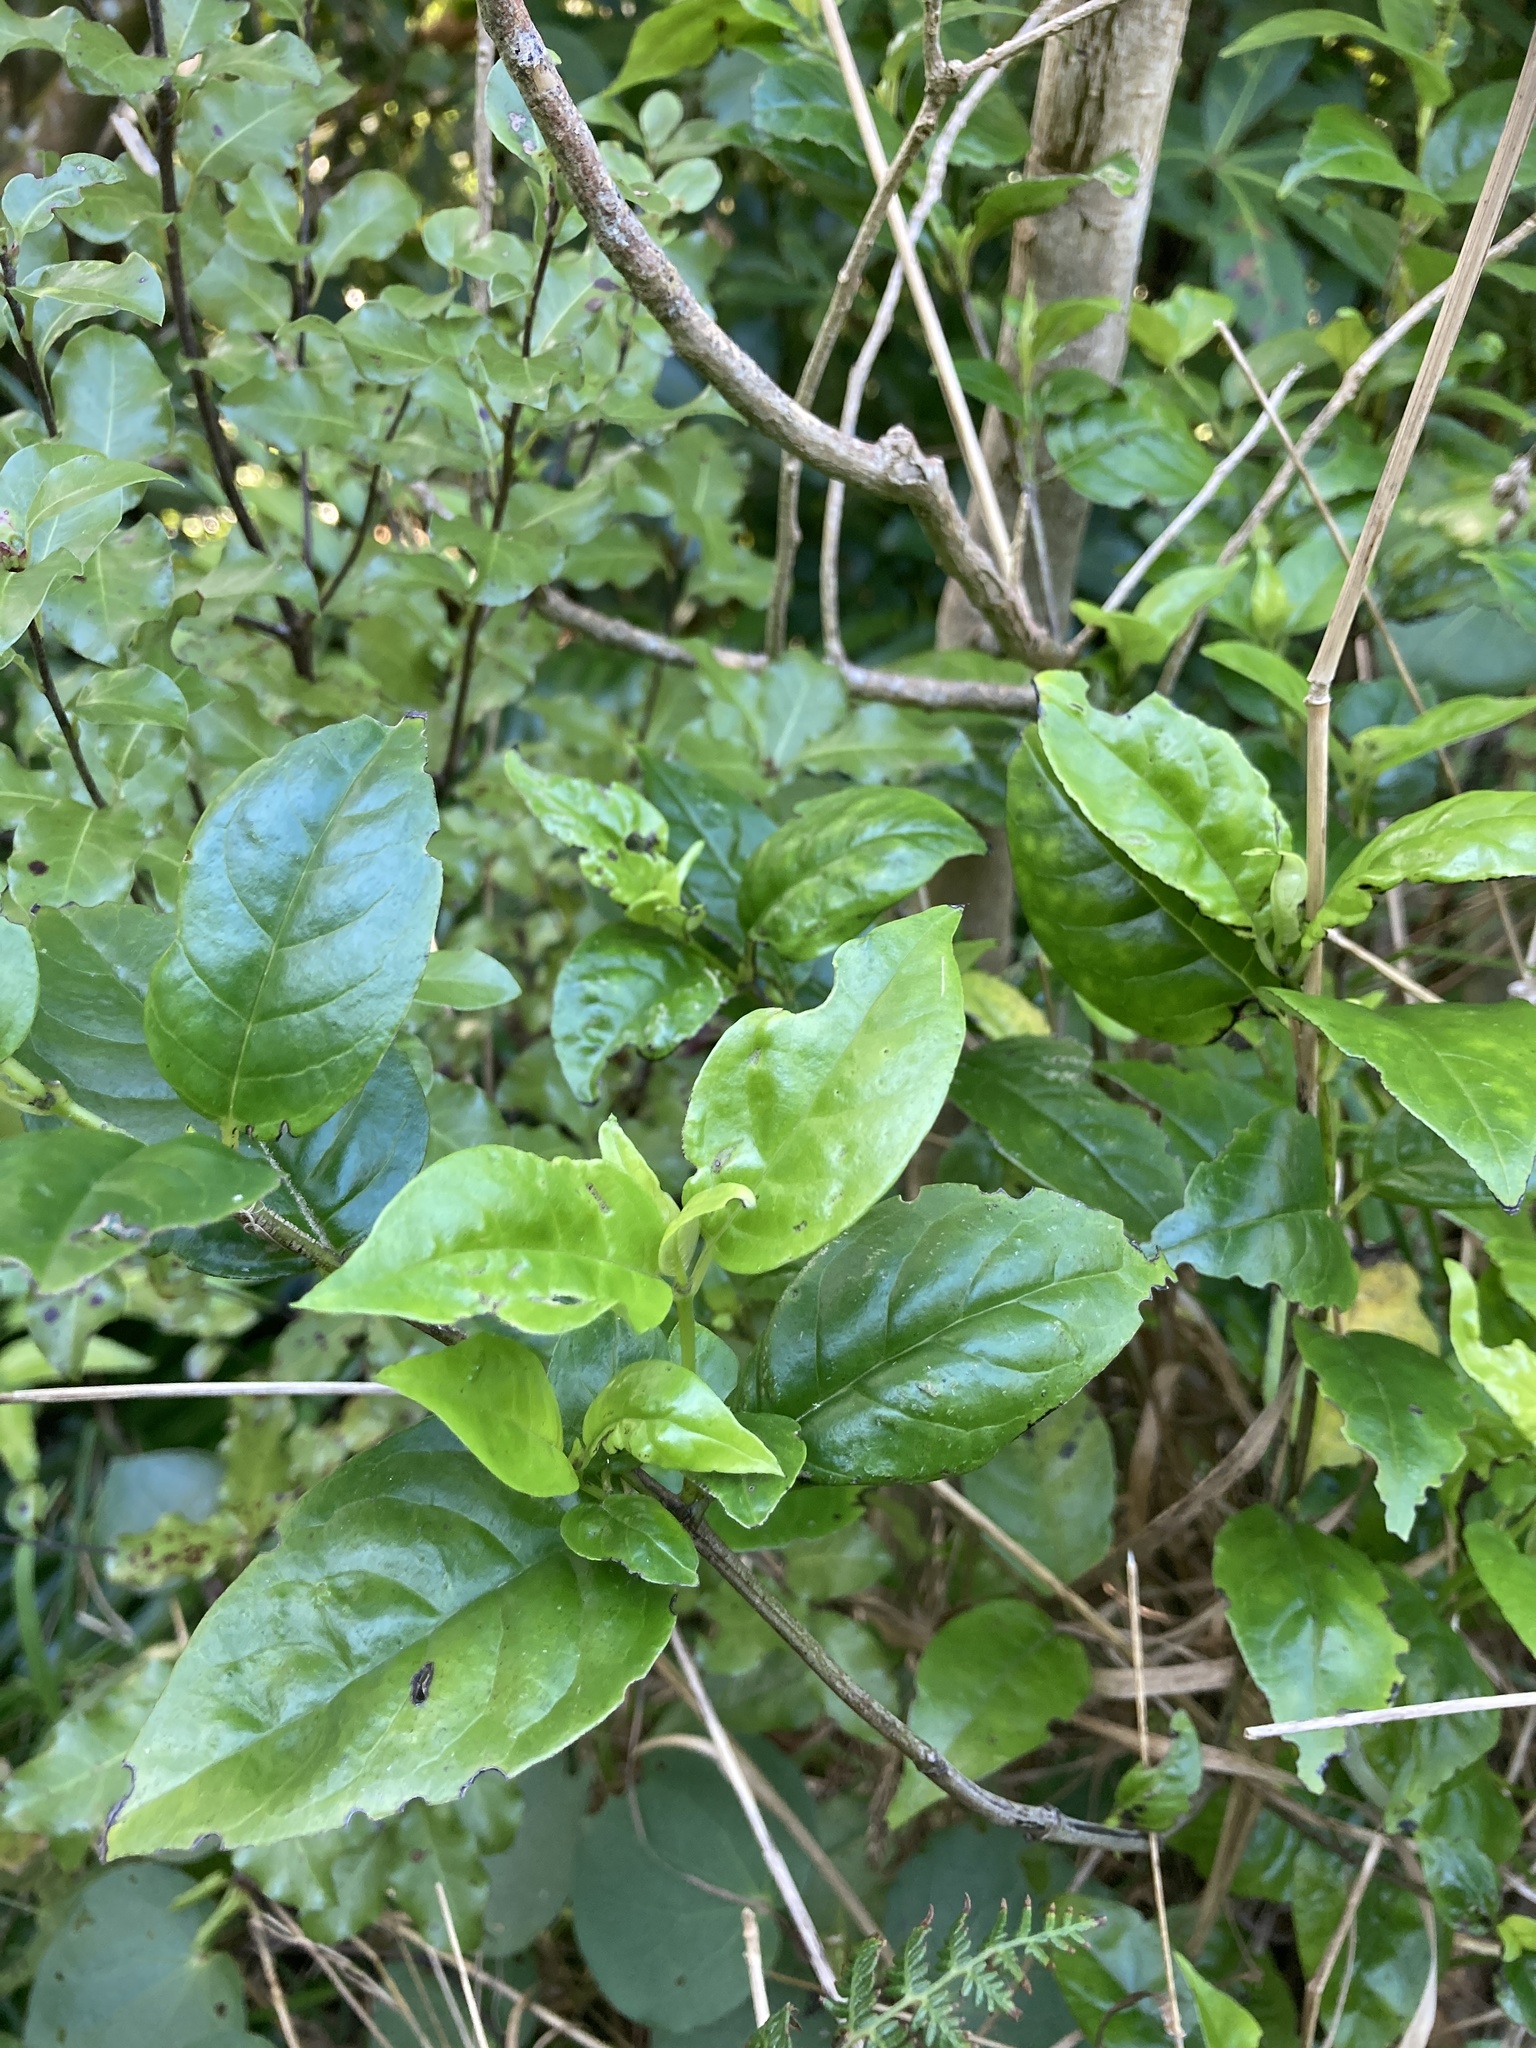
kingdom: Plantae
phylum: Tracheophyta
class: Magnoliopsida
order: Gentianales
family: Loganiaceae
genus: Geniostoma
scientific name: Geniostoma ligustrifolium
